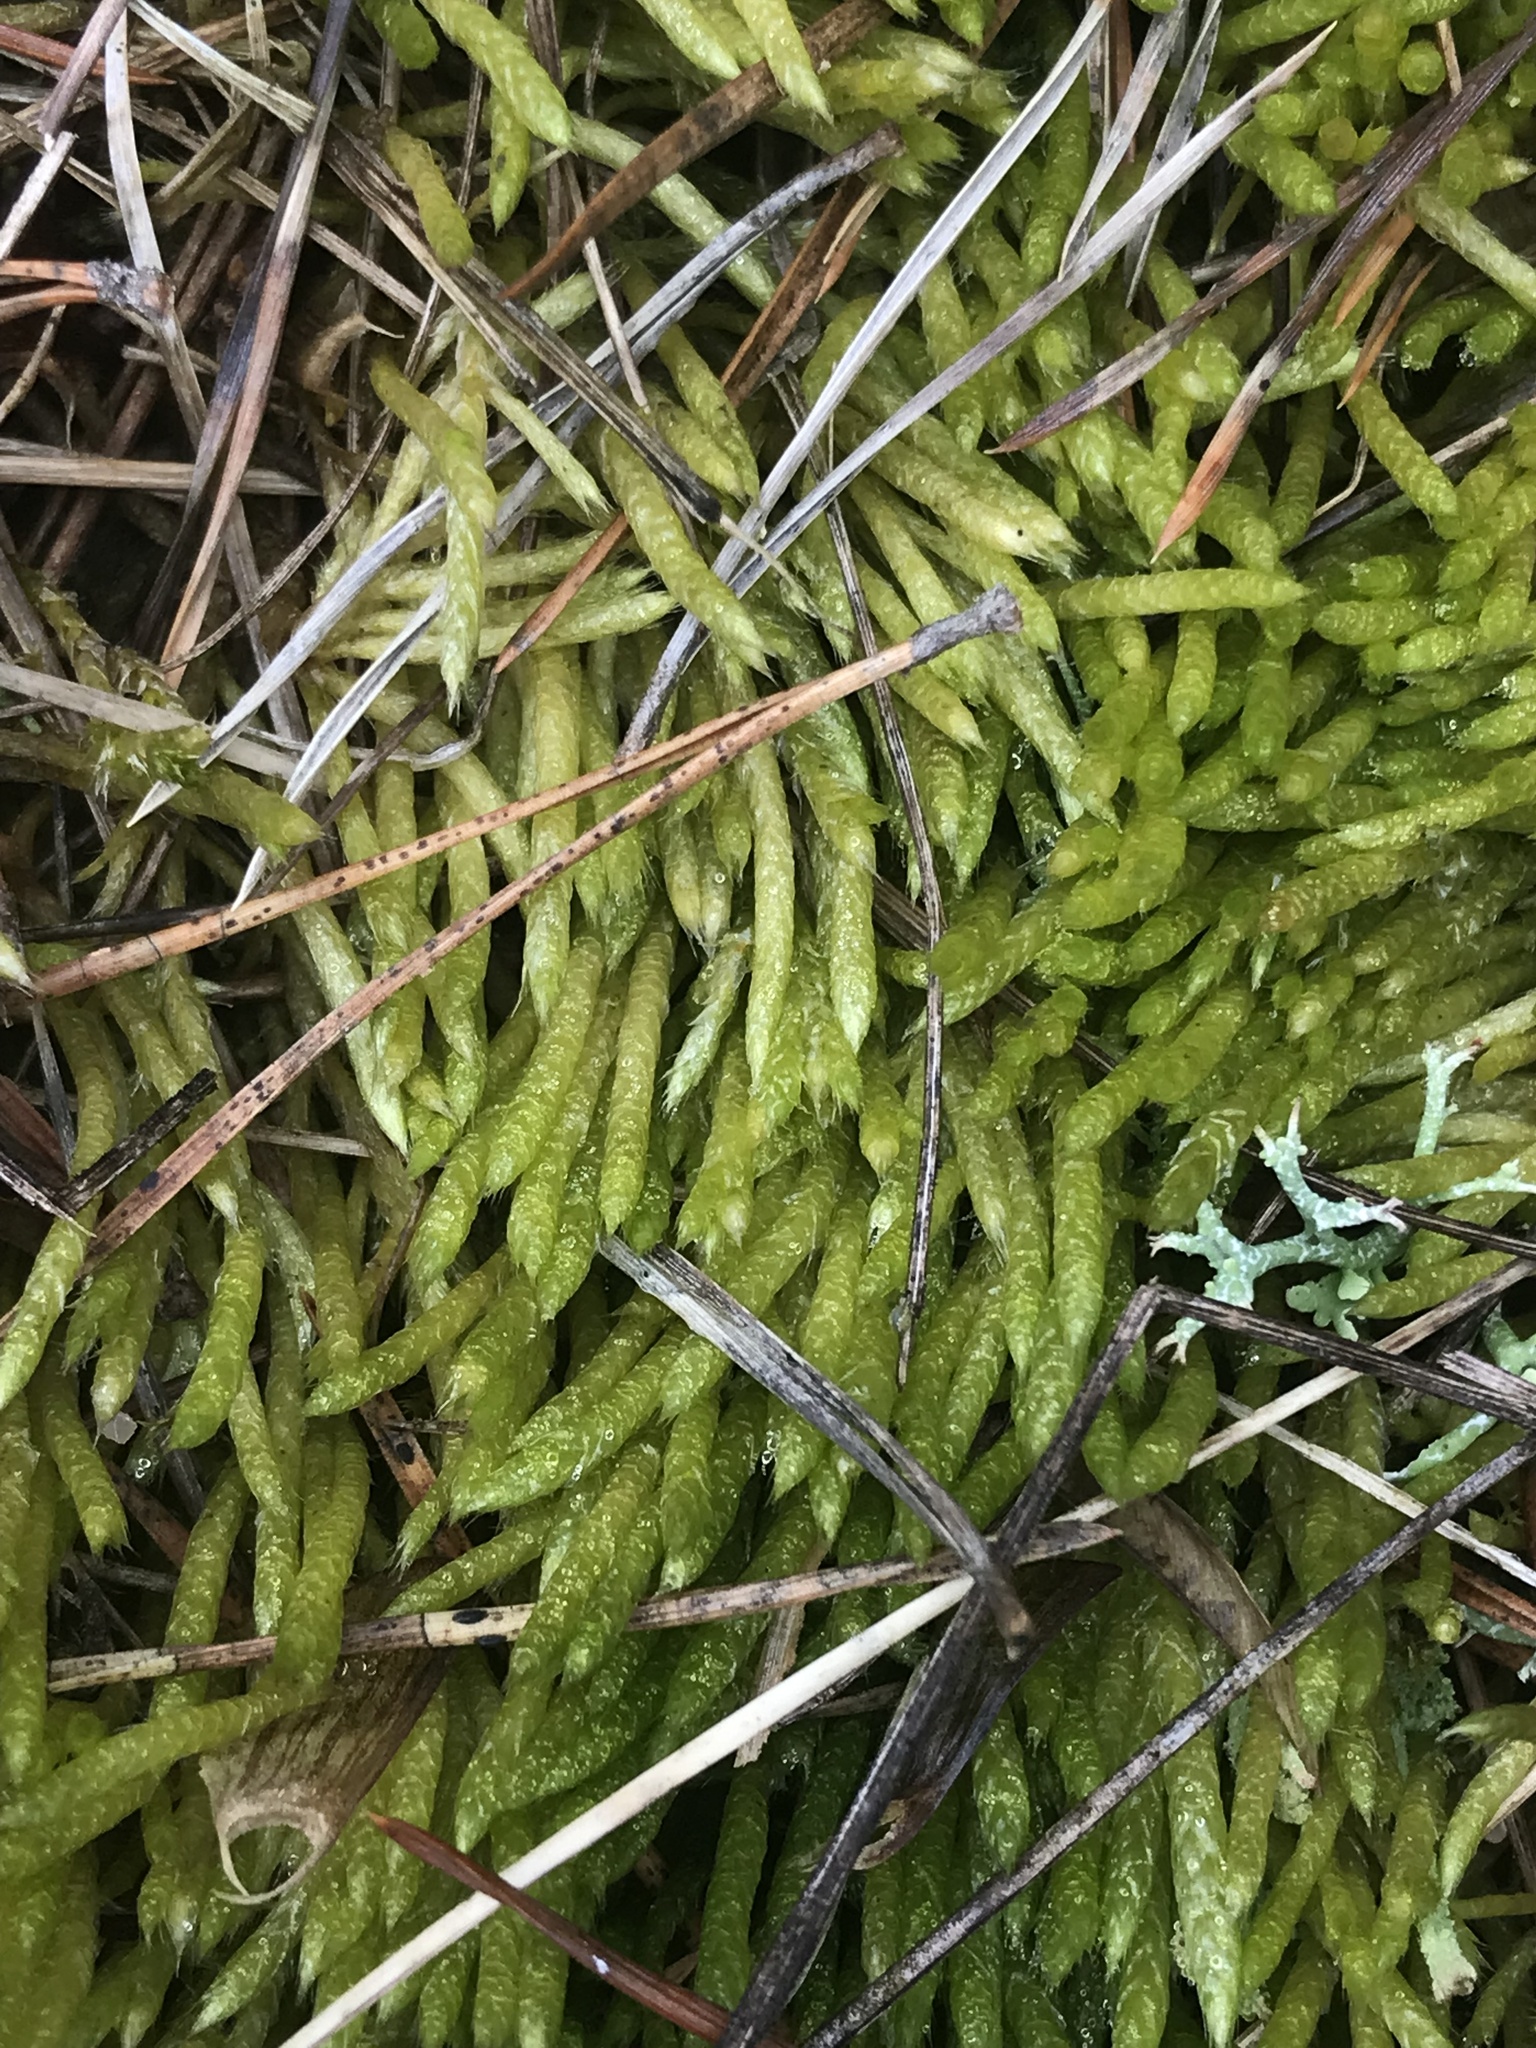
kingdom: Plantae
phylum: Bryophyta
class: Bryopsida
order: Hypnales
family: Brachytheciaceae
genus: Brachythecium
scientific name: Brachythecium albicans
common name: Whitish ragged moss
